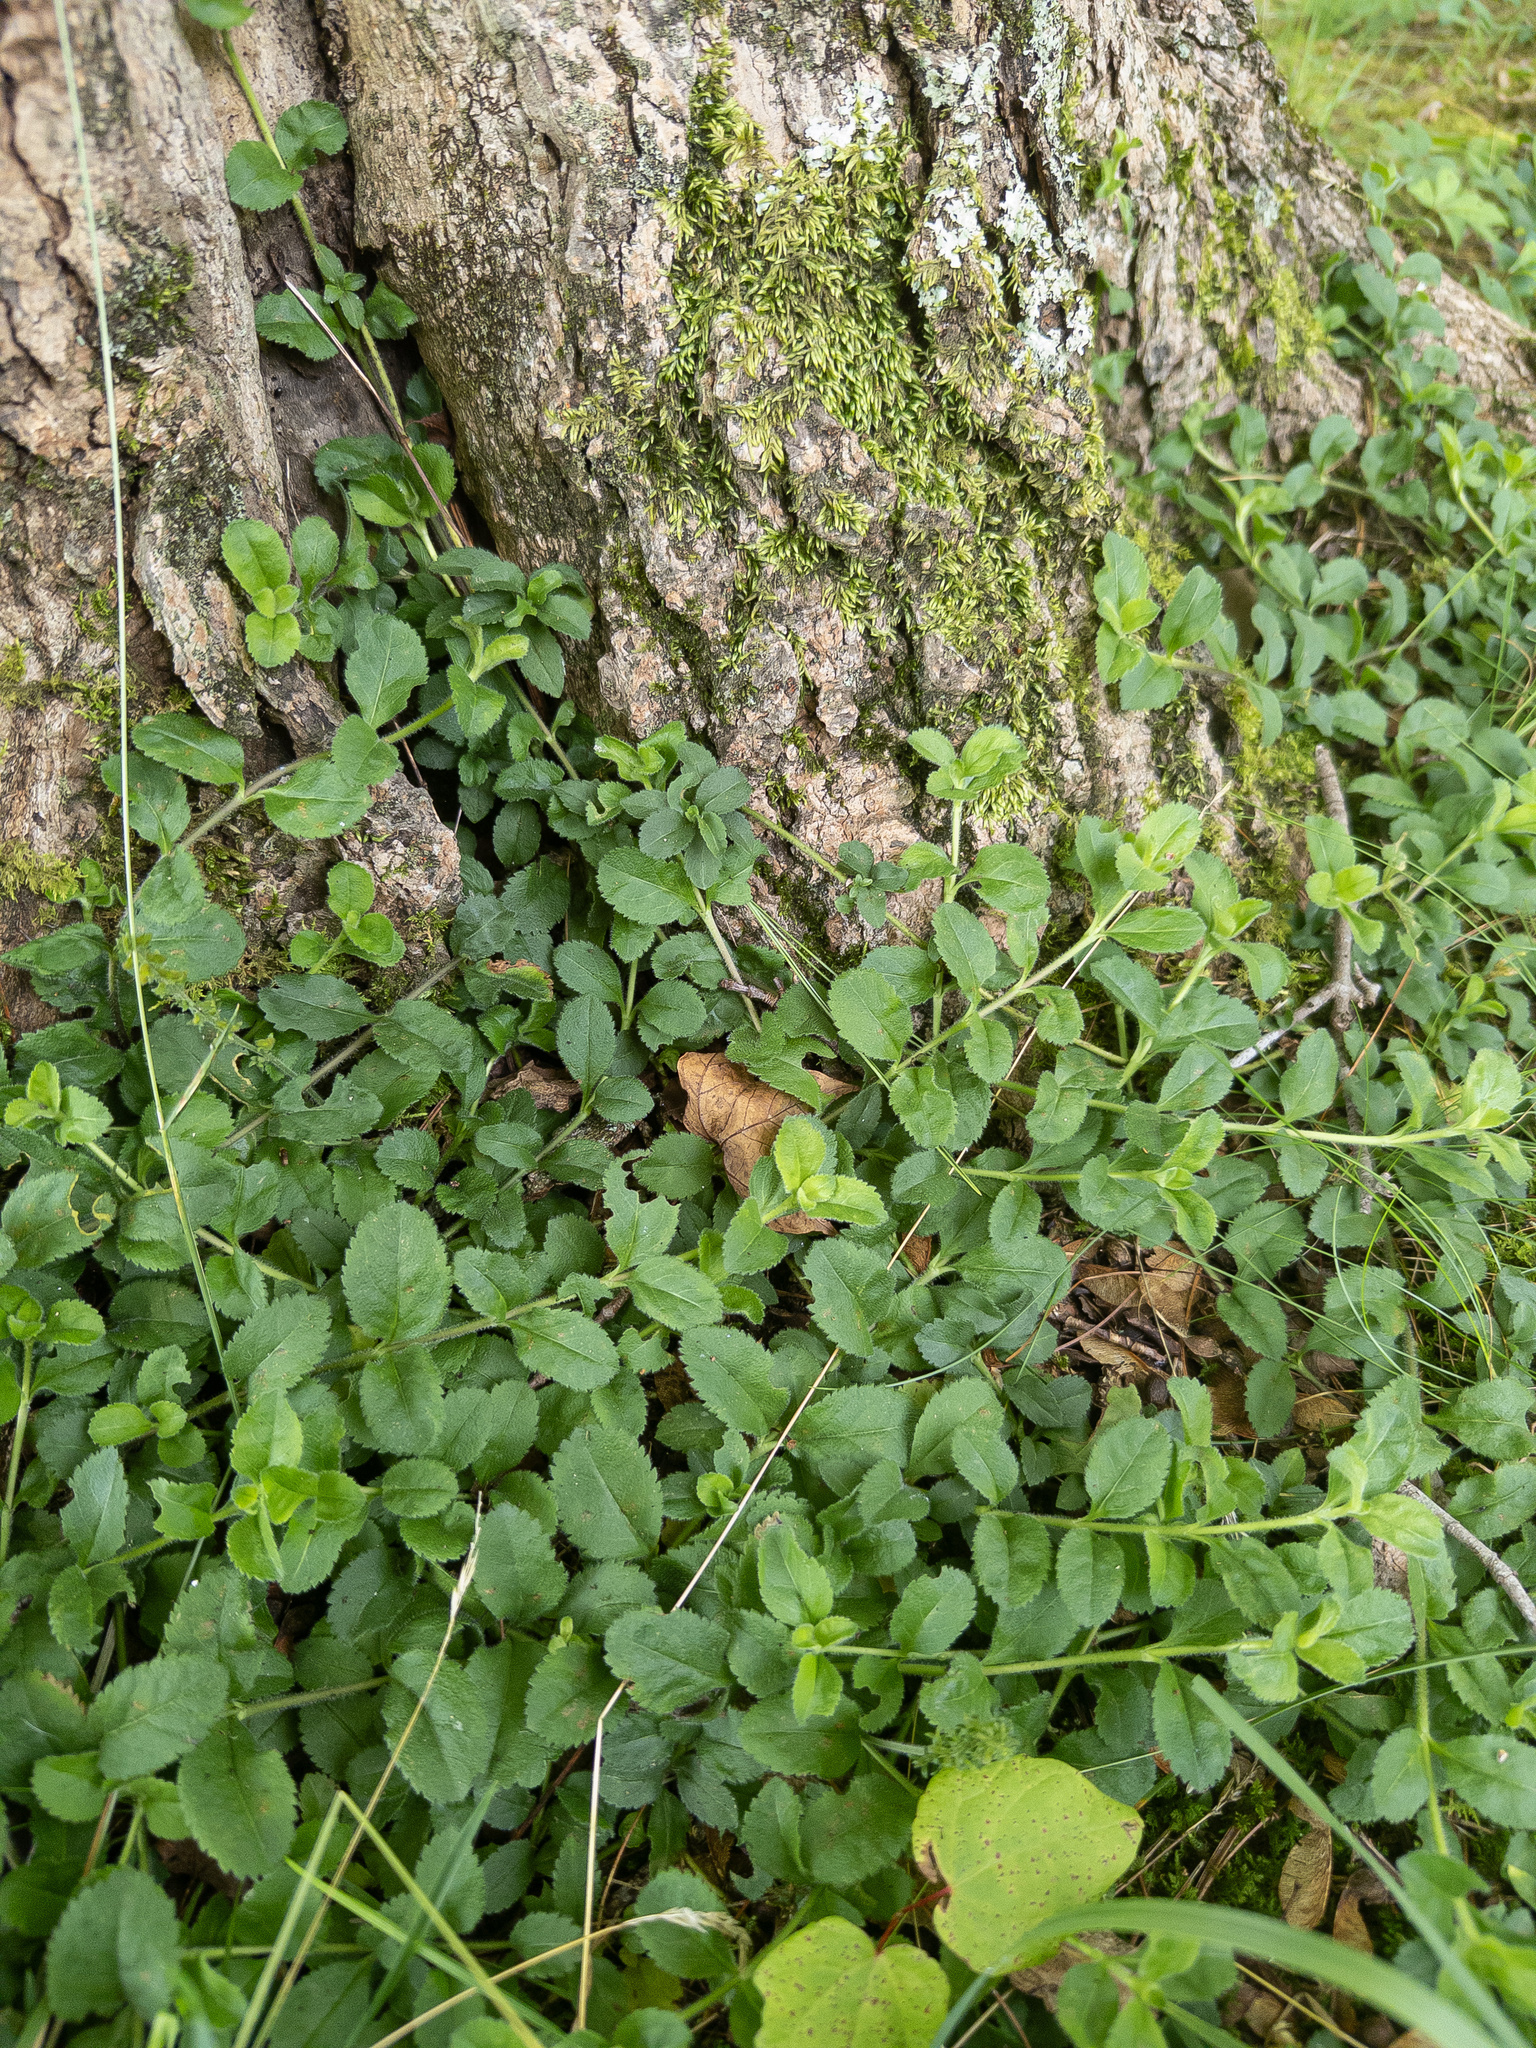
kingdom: Plantae
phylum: Tracheophyta
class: Magnoliopsida
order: Lamiales
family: Plantaginaceae
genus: Veronica
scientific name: Veronica officinalis
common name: Common speedwell
